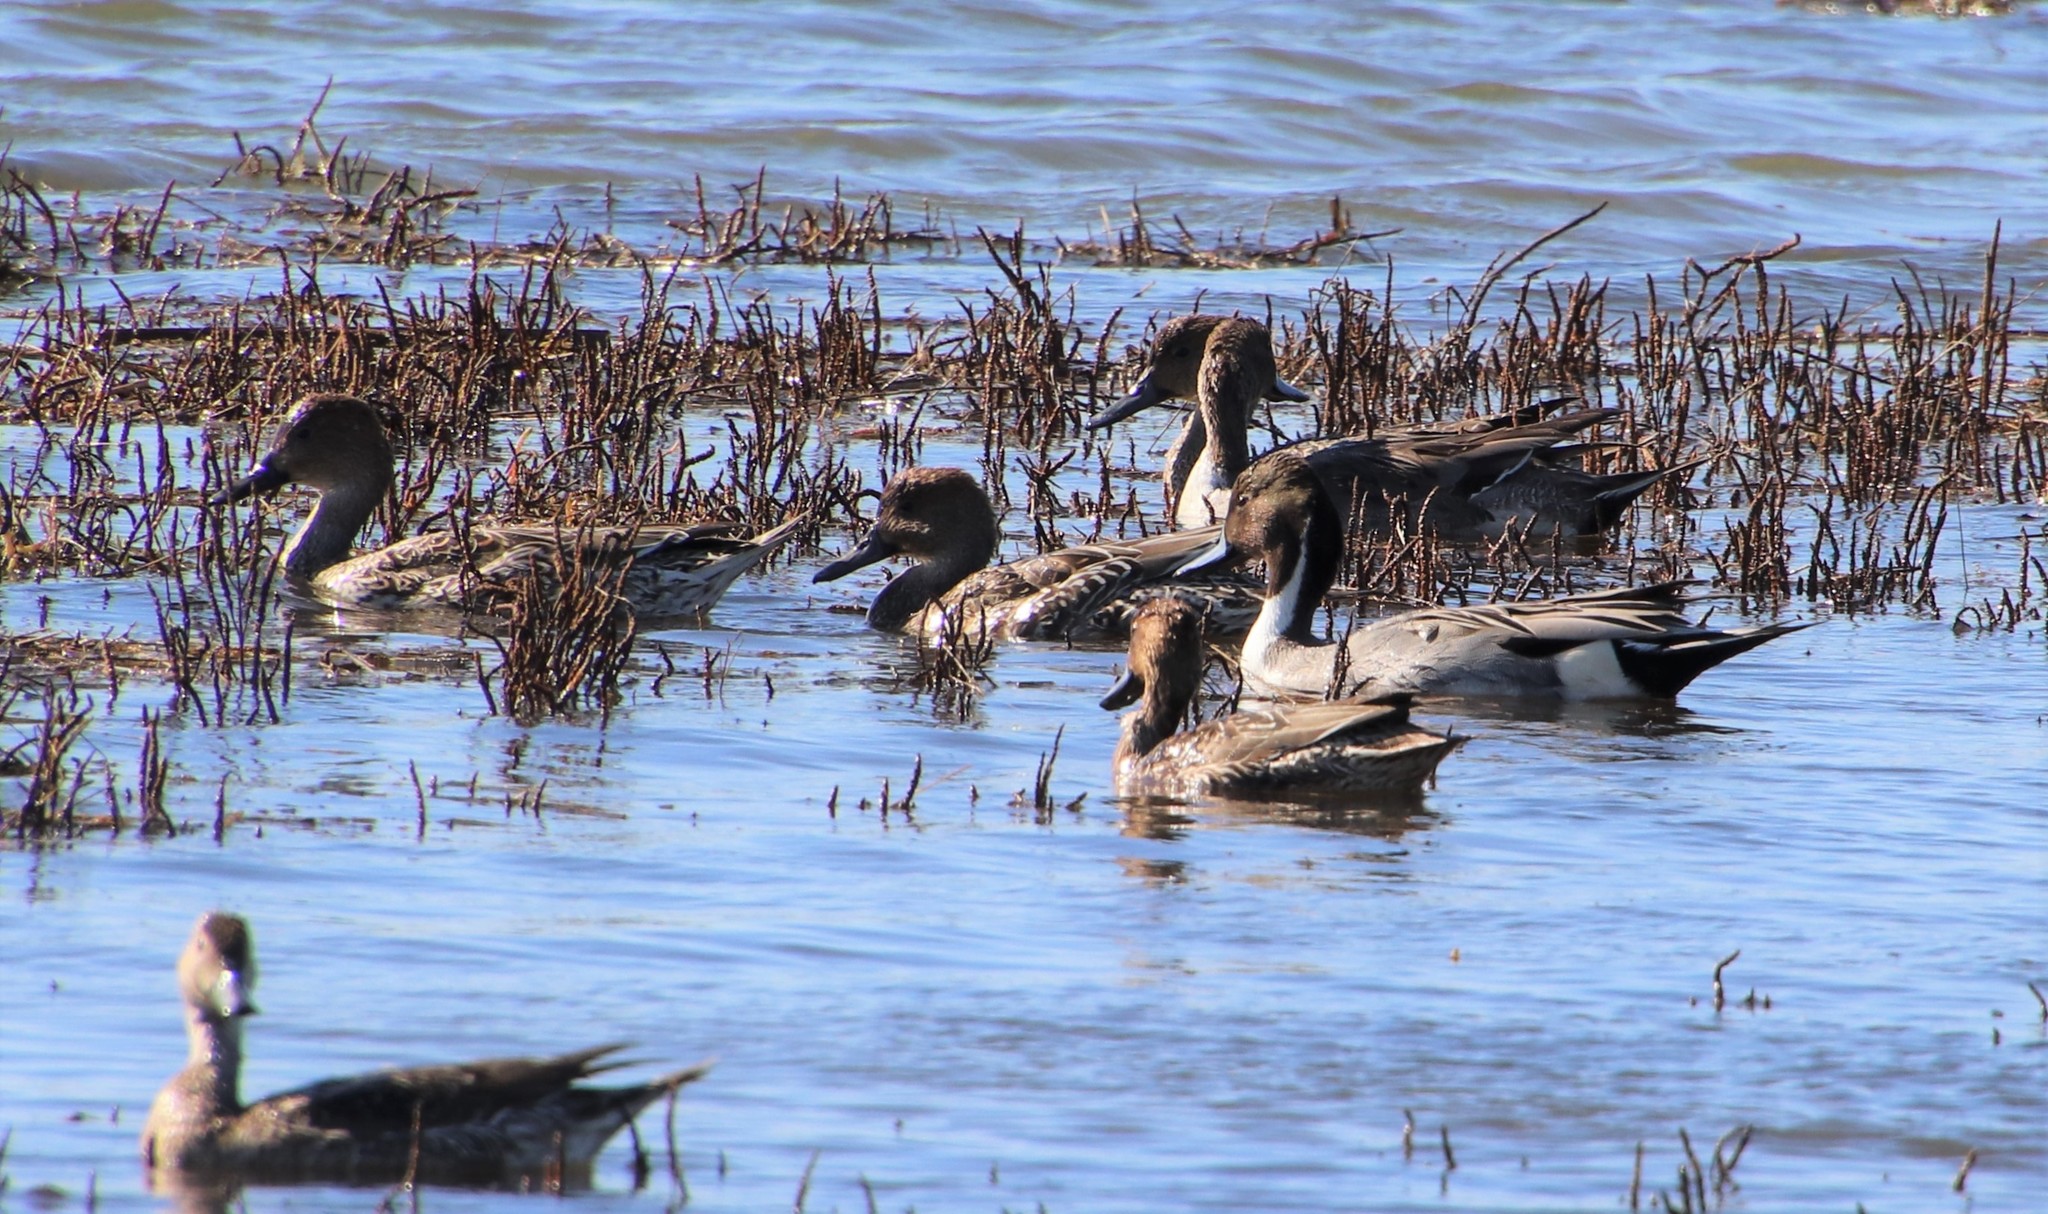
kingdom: Animalia
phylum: Chordata
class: Aves
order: Anseriformes
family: Anatidae
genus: Anas
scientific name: Anas acuta
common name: Northern pintail
